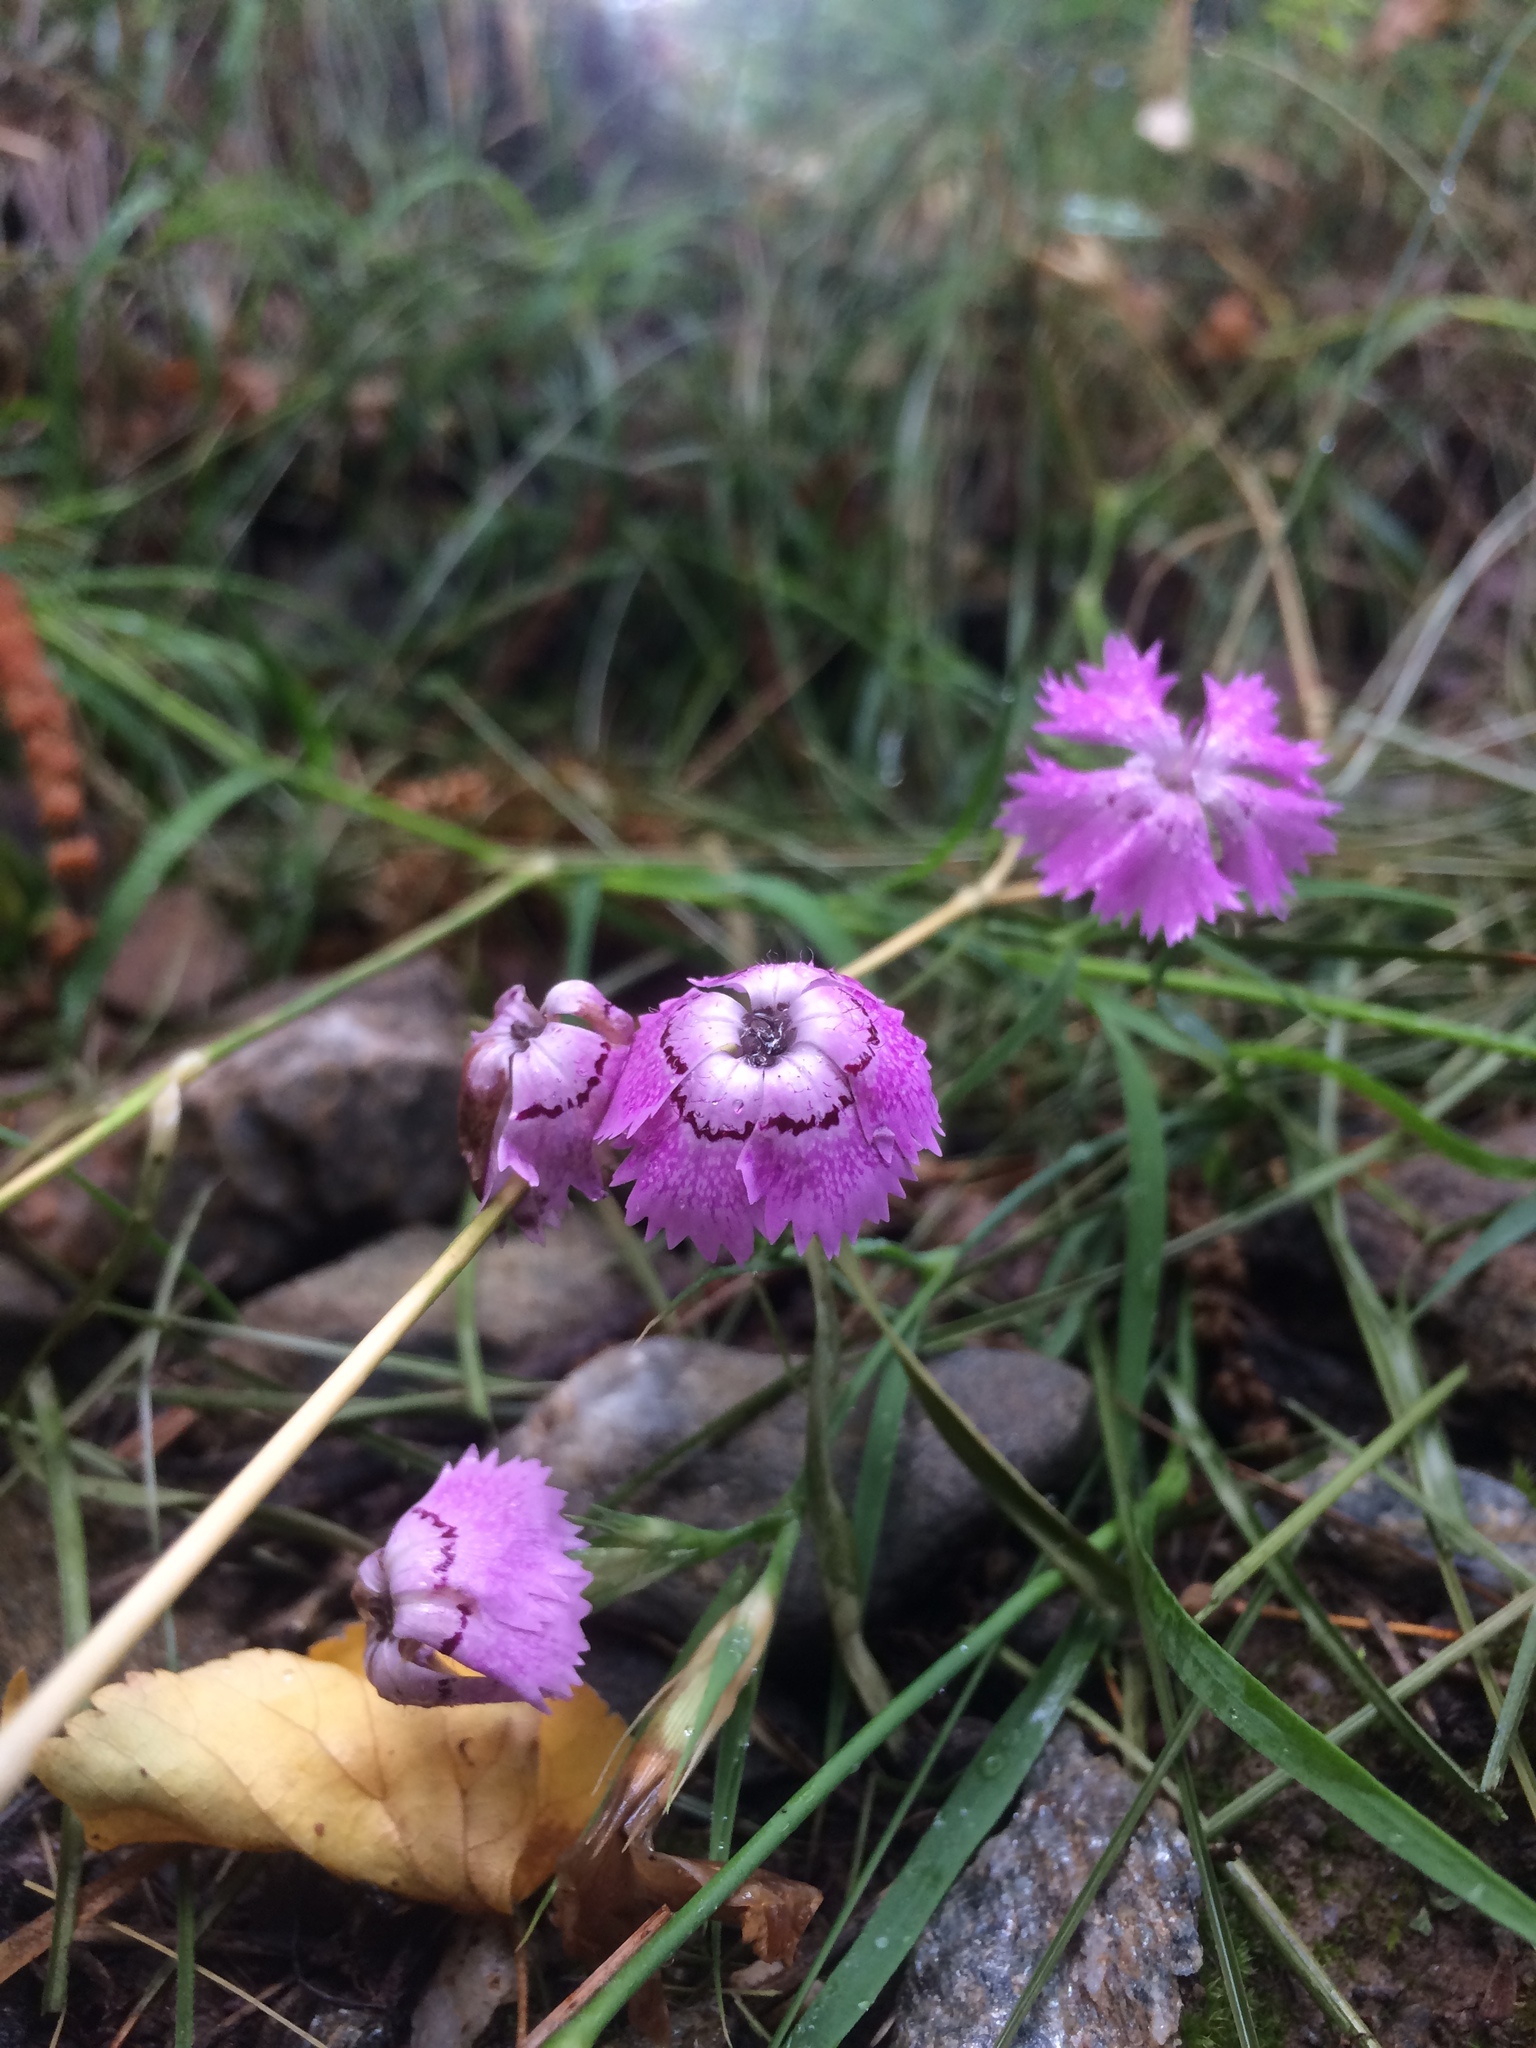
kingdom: Plantae
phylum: Tracheophyta
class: Magnoliopsida
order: Caryophyllales
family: Caryophyllaceae
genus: Dianthus
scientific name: Dianthus seguieri
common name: Ragged pink
